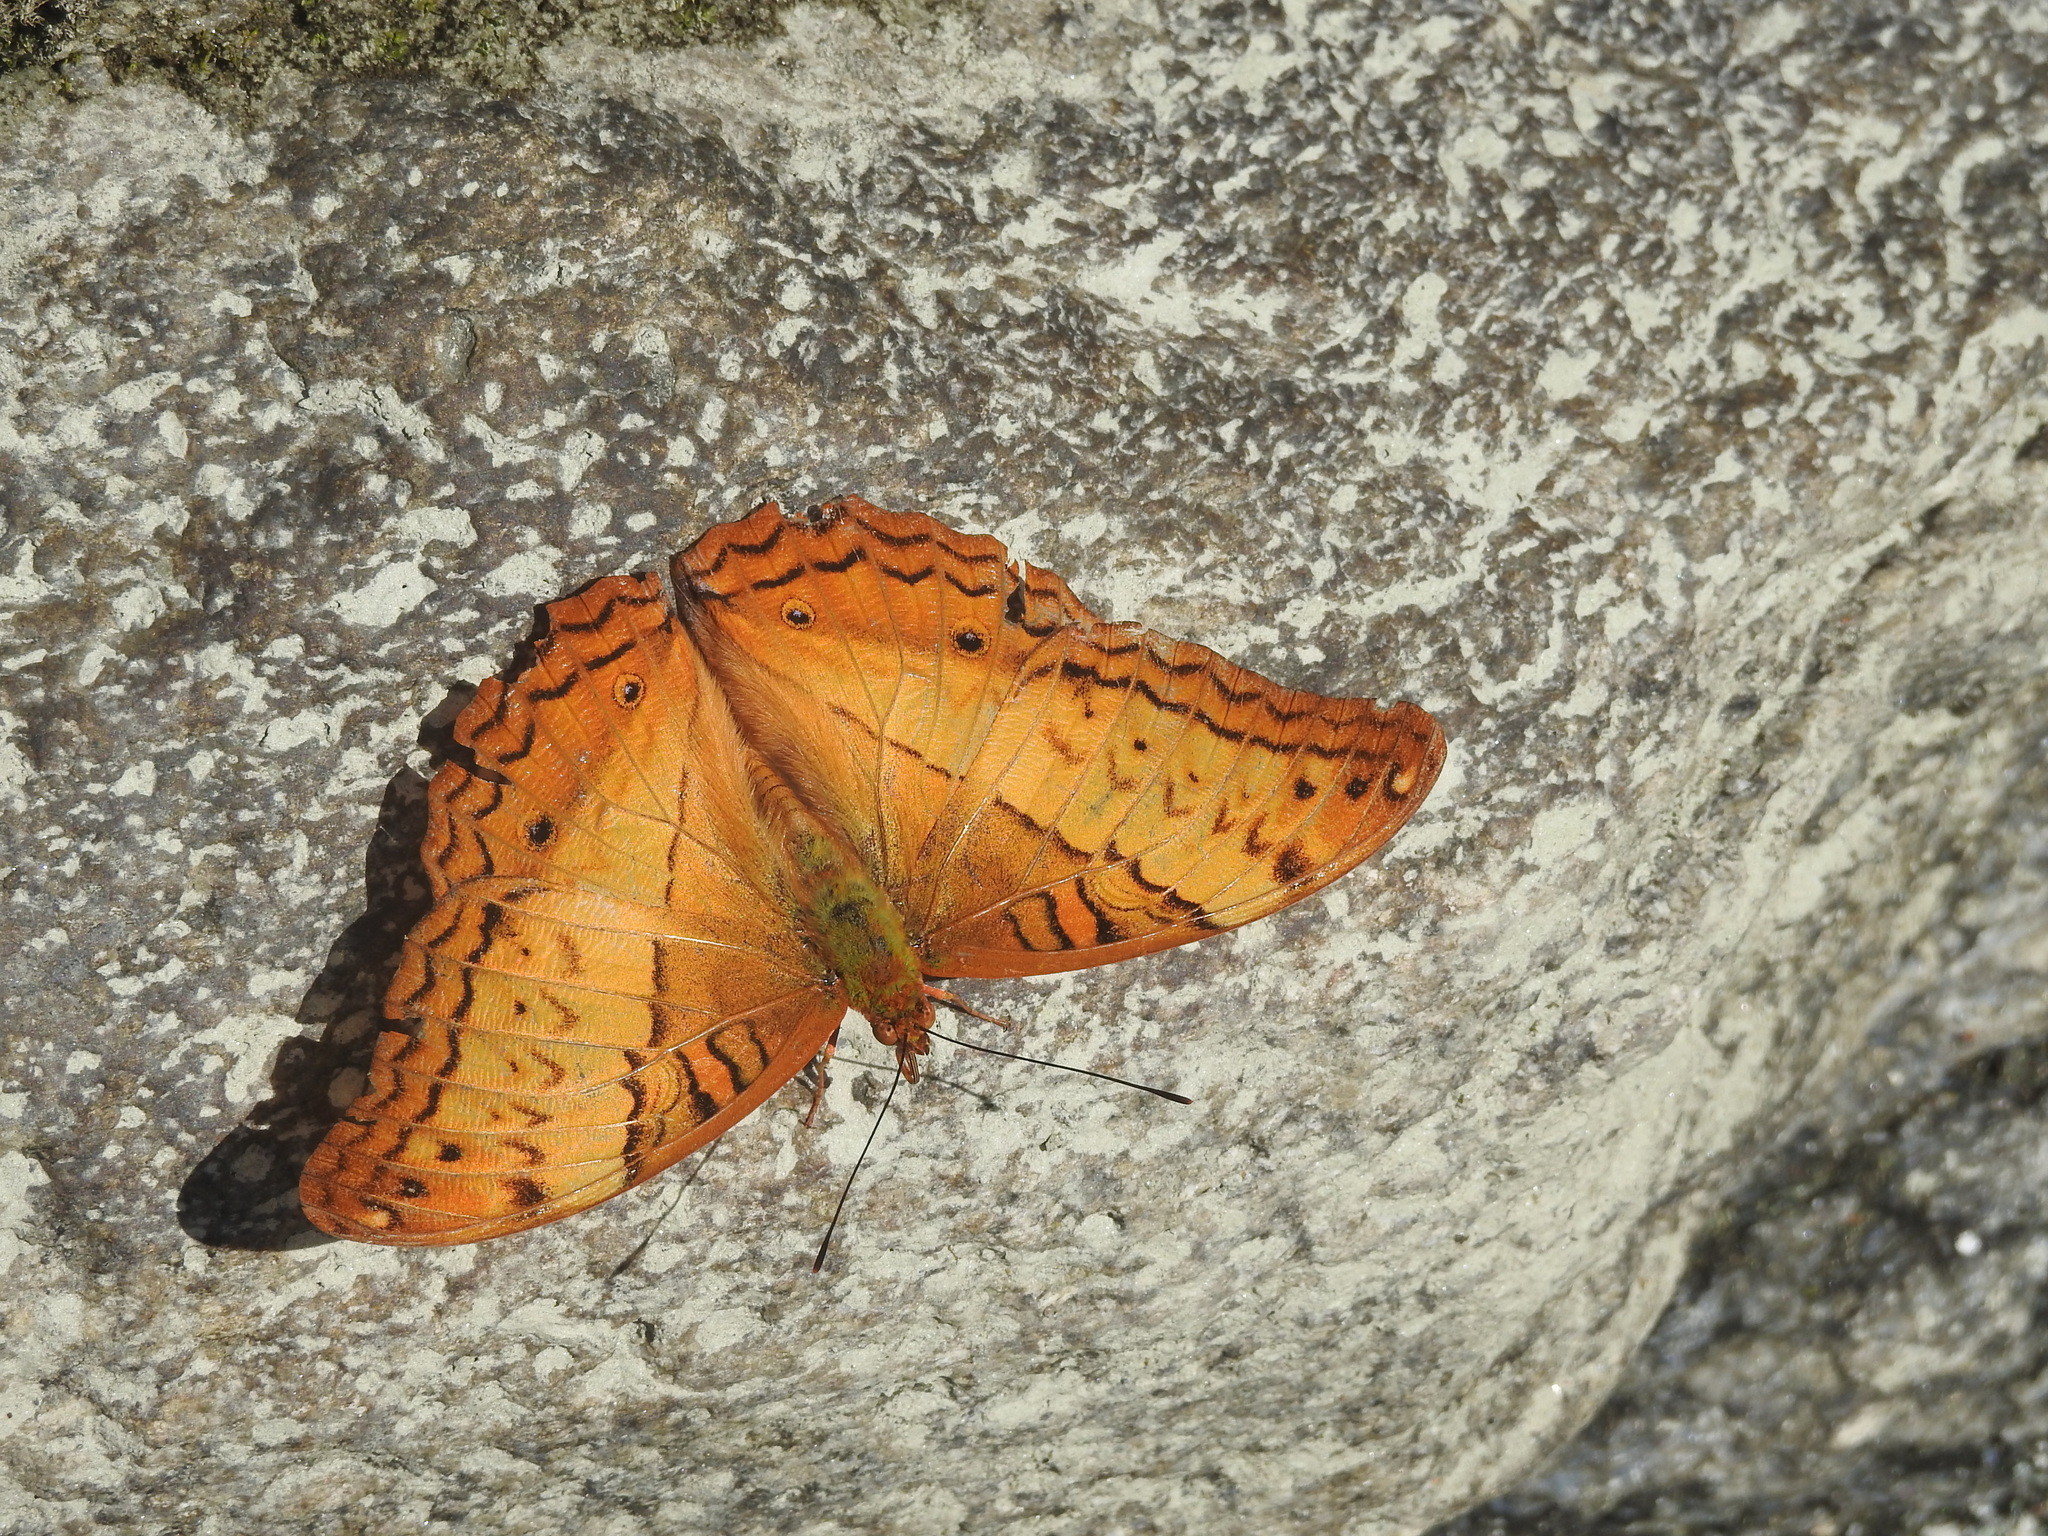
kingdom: Animalia
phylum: Arthropoda
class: Insecta
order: Lepidoptera
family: Nymphalidae
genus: Vindula
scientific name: Vindula erota
